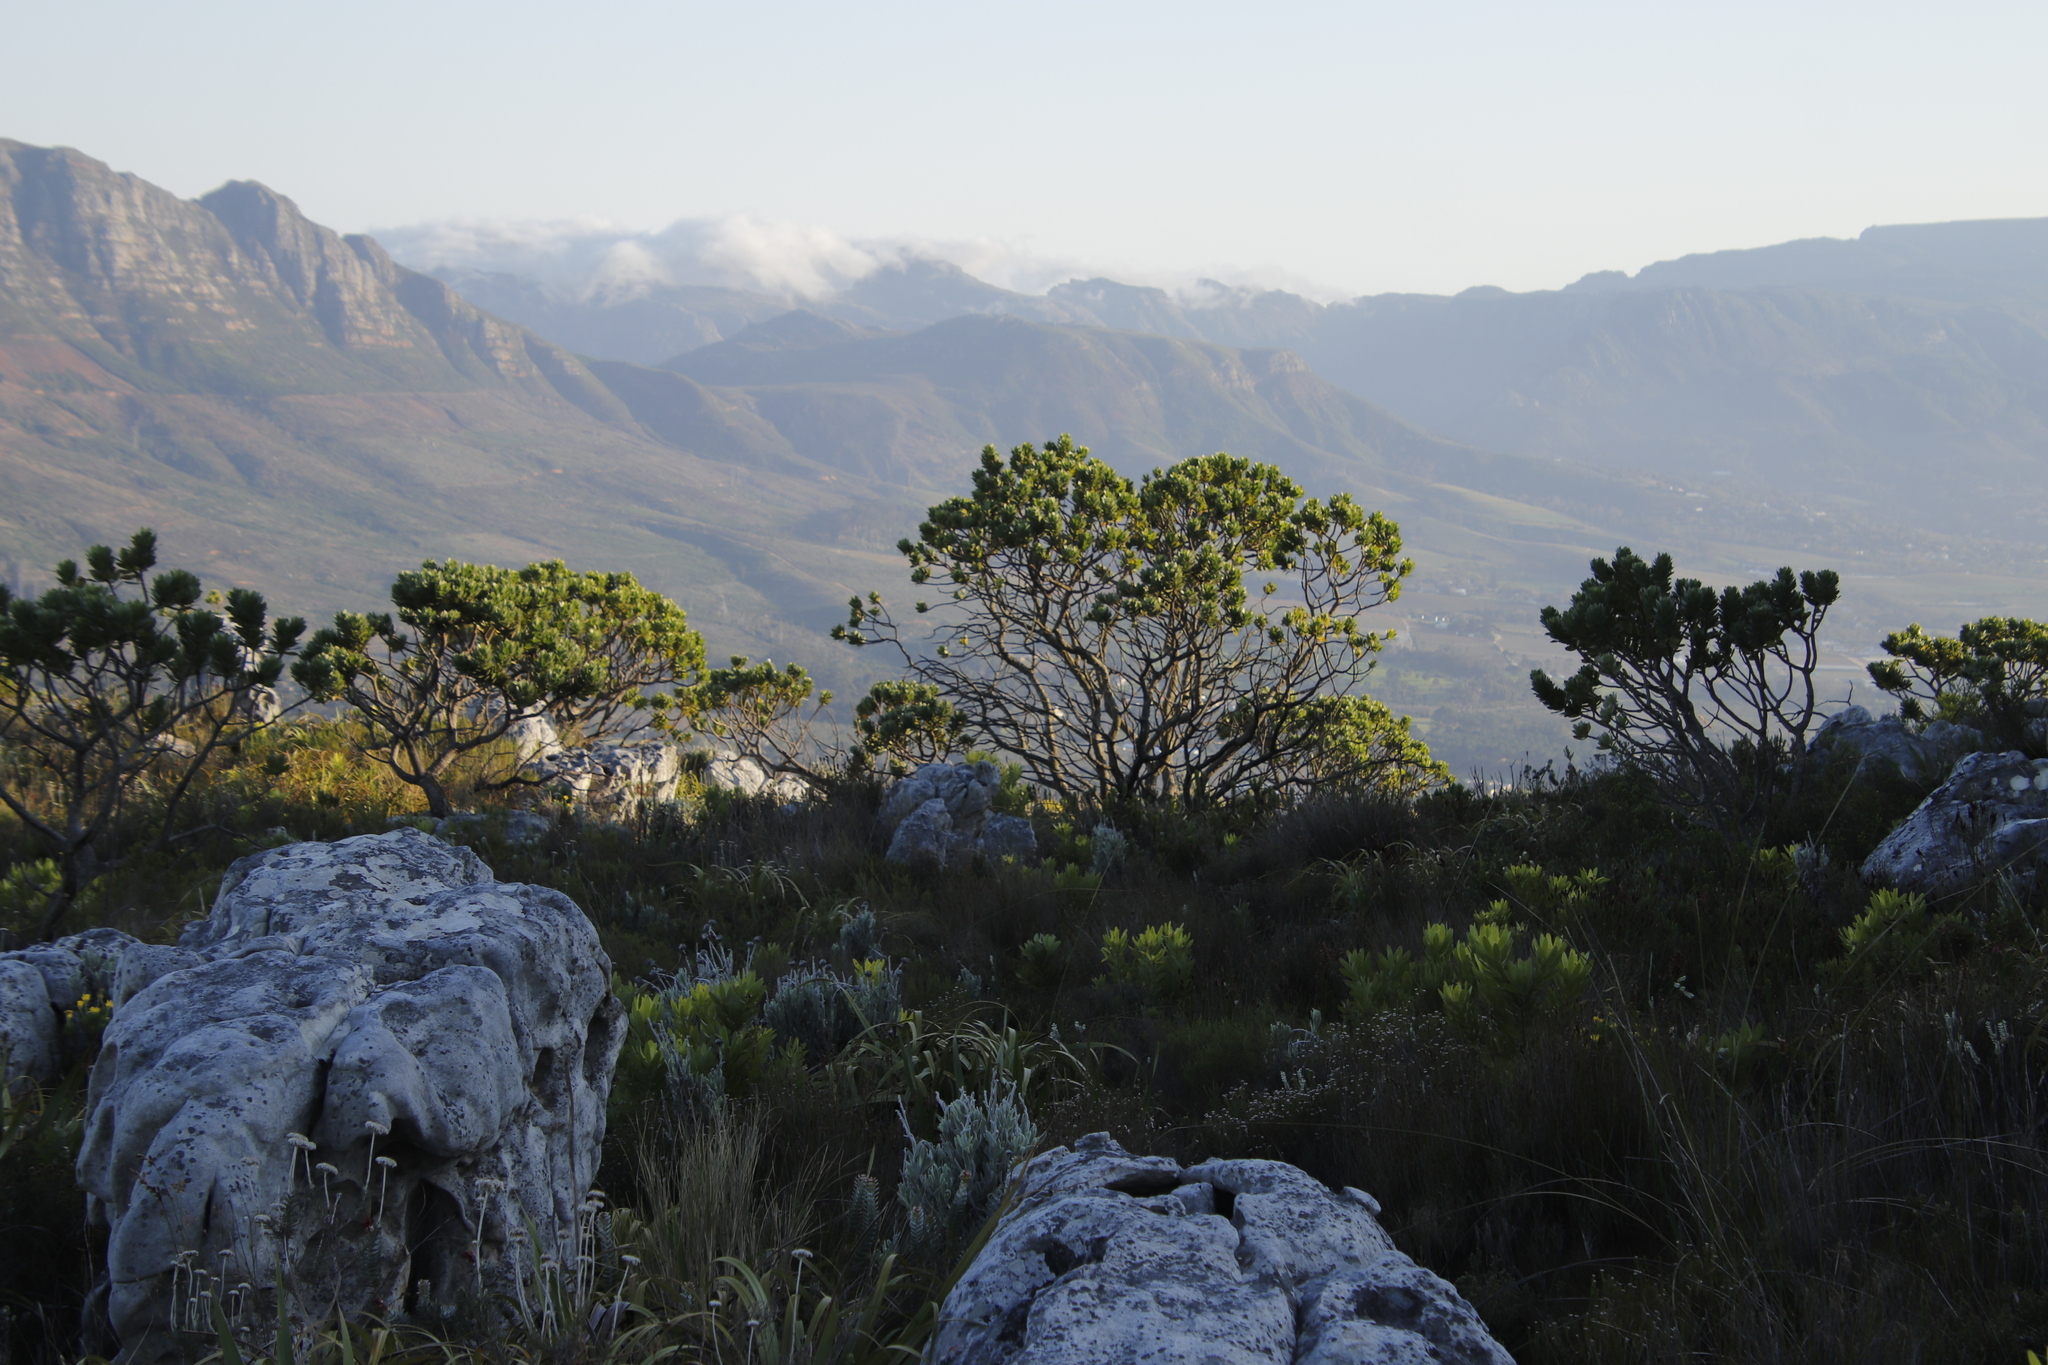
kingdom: Plantae
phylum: Tracheophyta
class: Magnoliopsida
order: Proteales
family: Proteaceae
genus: Leucospermum
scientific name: Leucospermum conocarpodendron
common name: Tree pincushion
